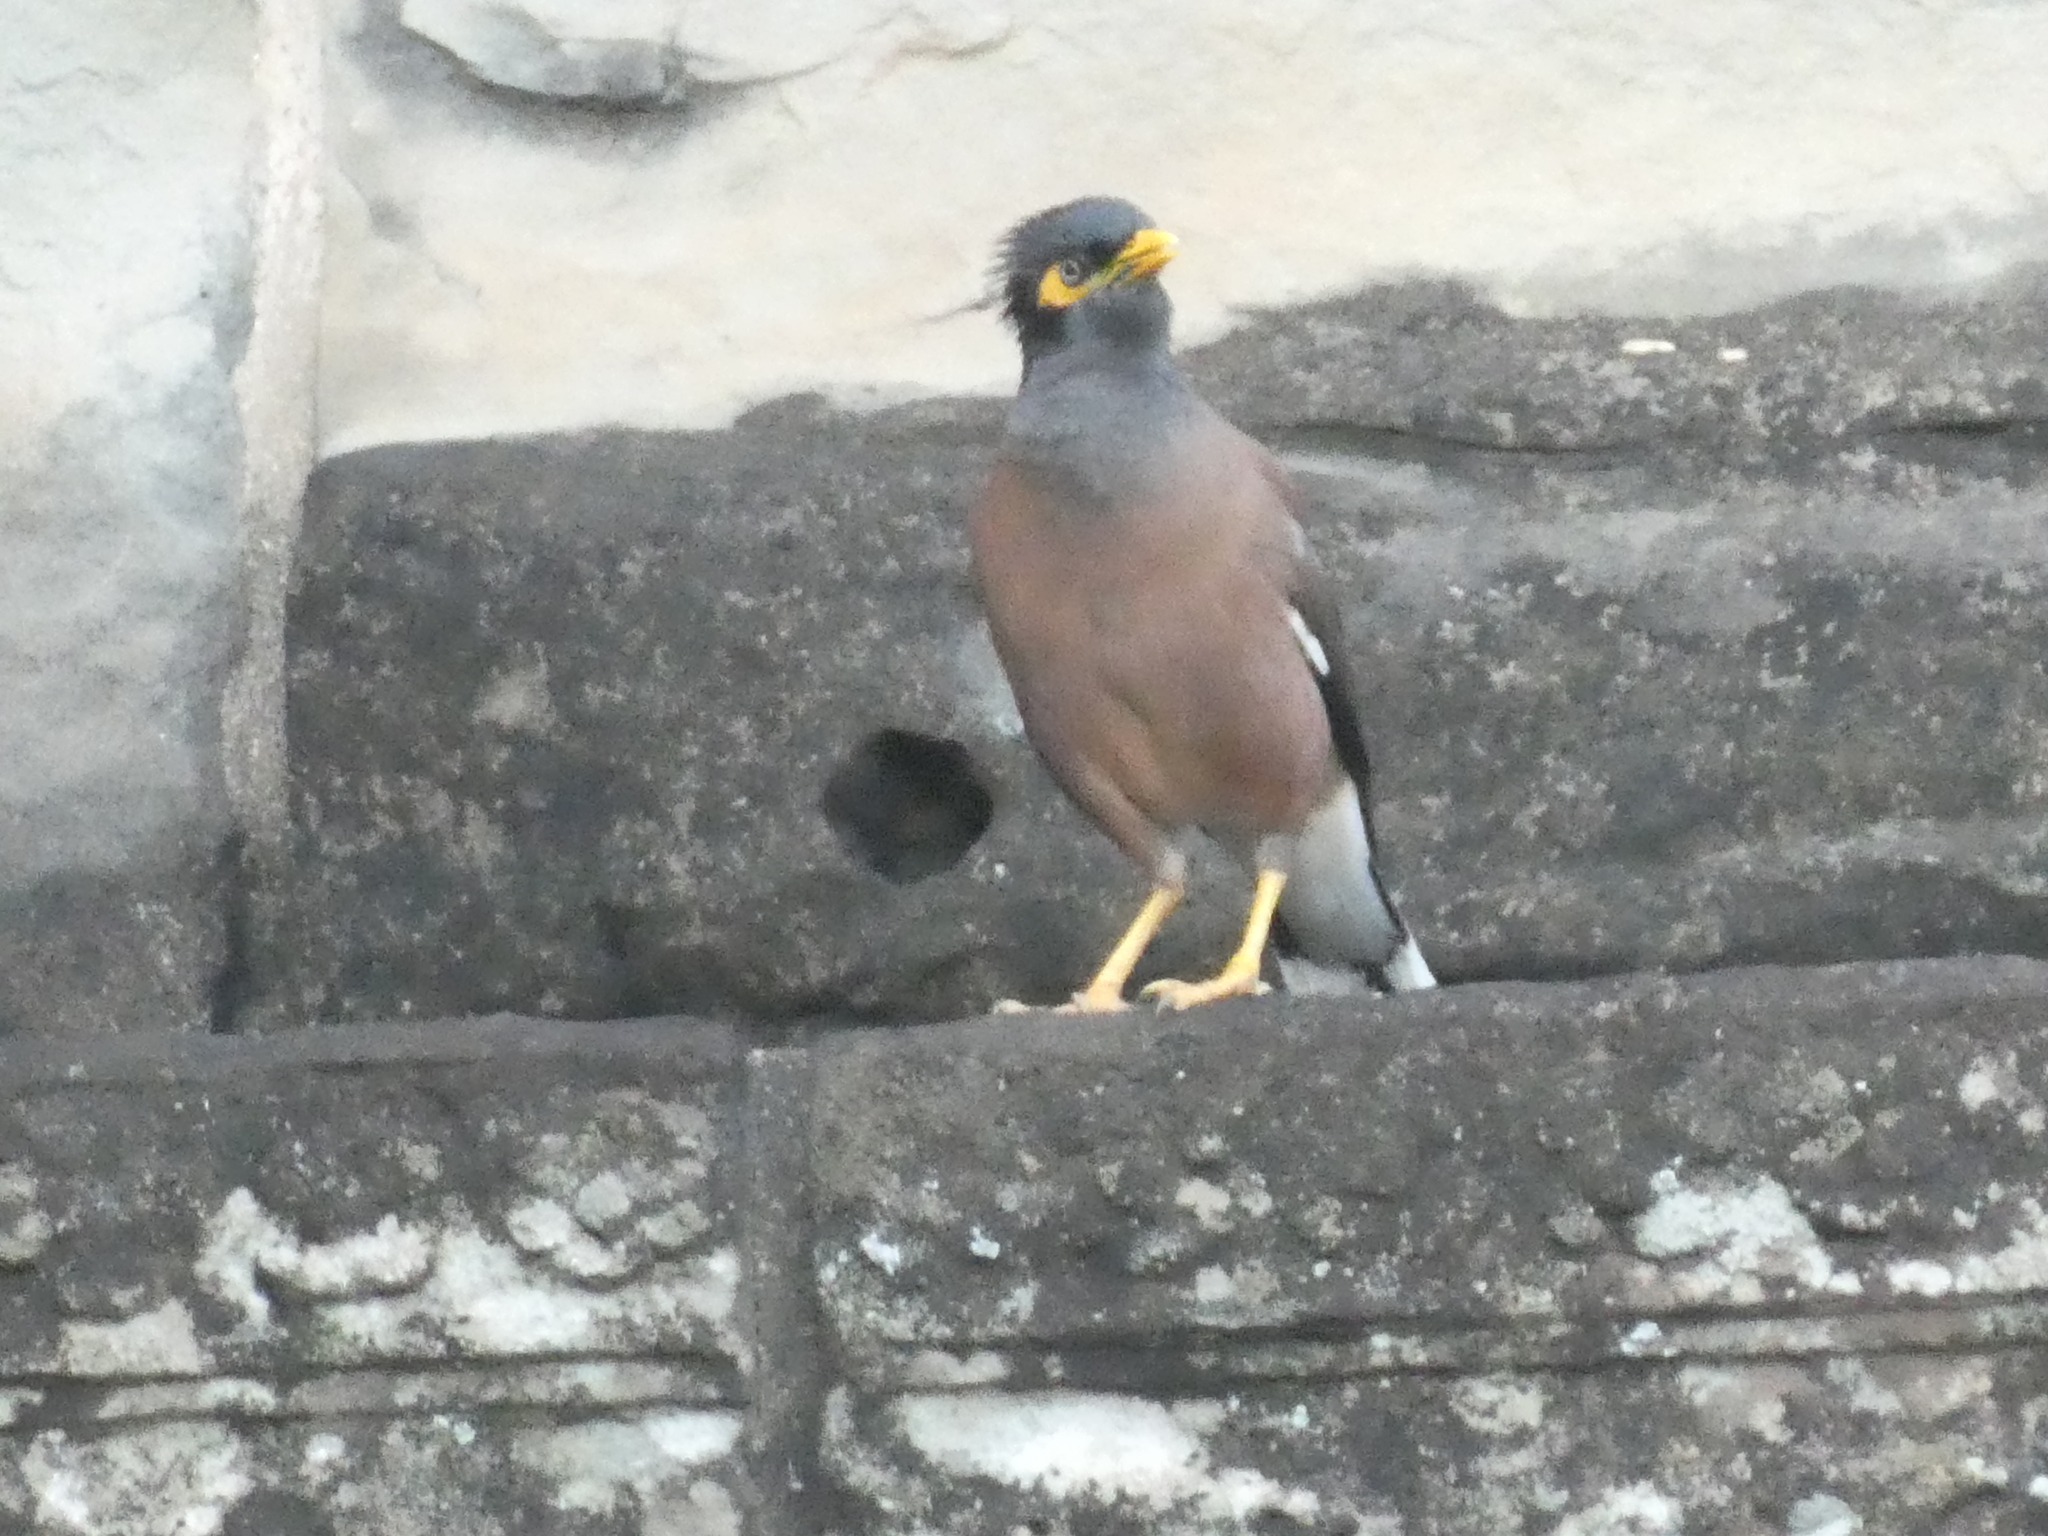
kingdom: Animalia
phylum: Chordata
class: Aves
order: Passeriformes
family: Sturnidae
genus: Acridotheres
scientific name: Acridotheres tristis
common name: Common myna
